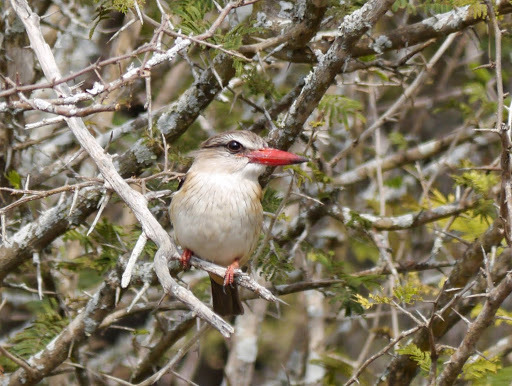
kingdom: Animalia
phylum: Chordata
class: Aves
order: Coraciiformes
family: Alcedinidae
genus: Halcyon
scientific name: Halcyon albiventris
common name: Brown-hooded kingfisher
